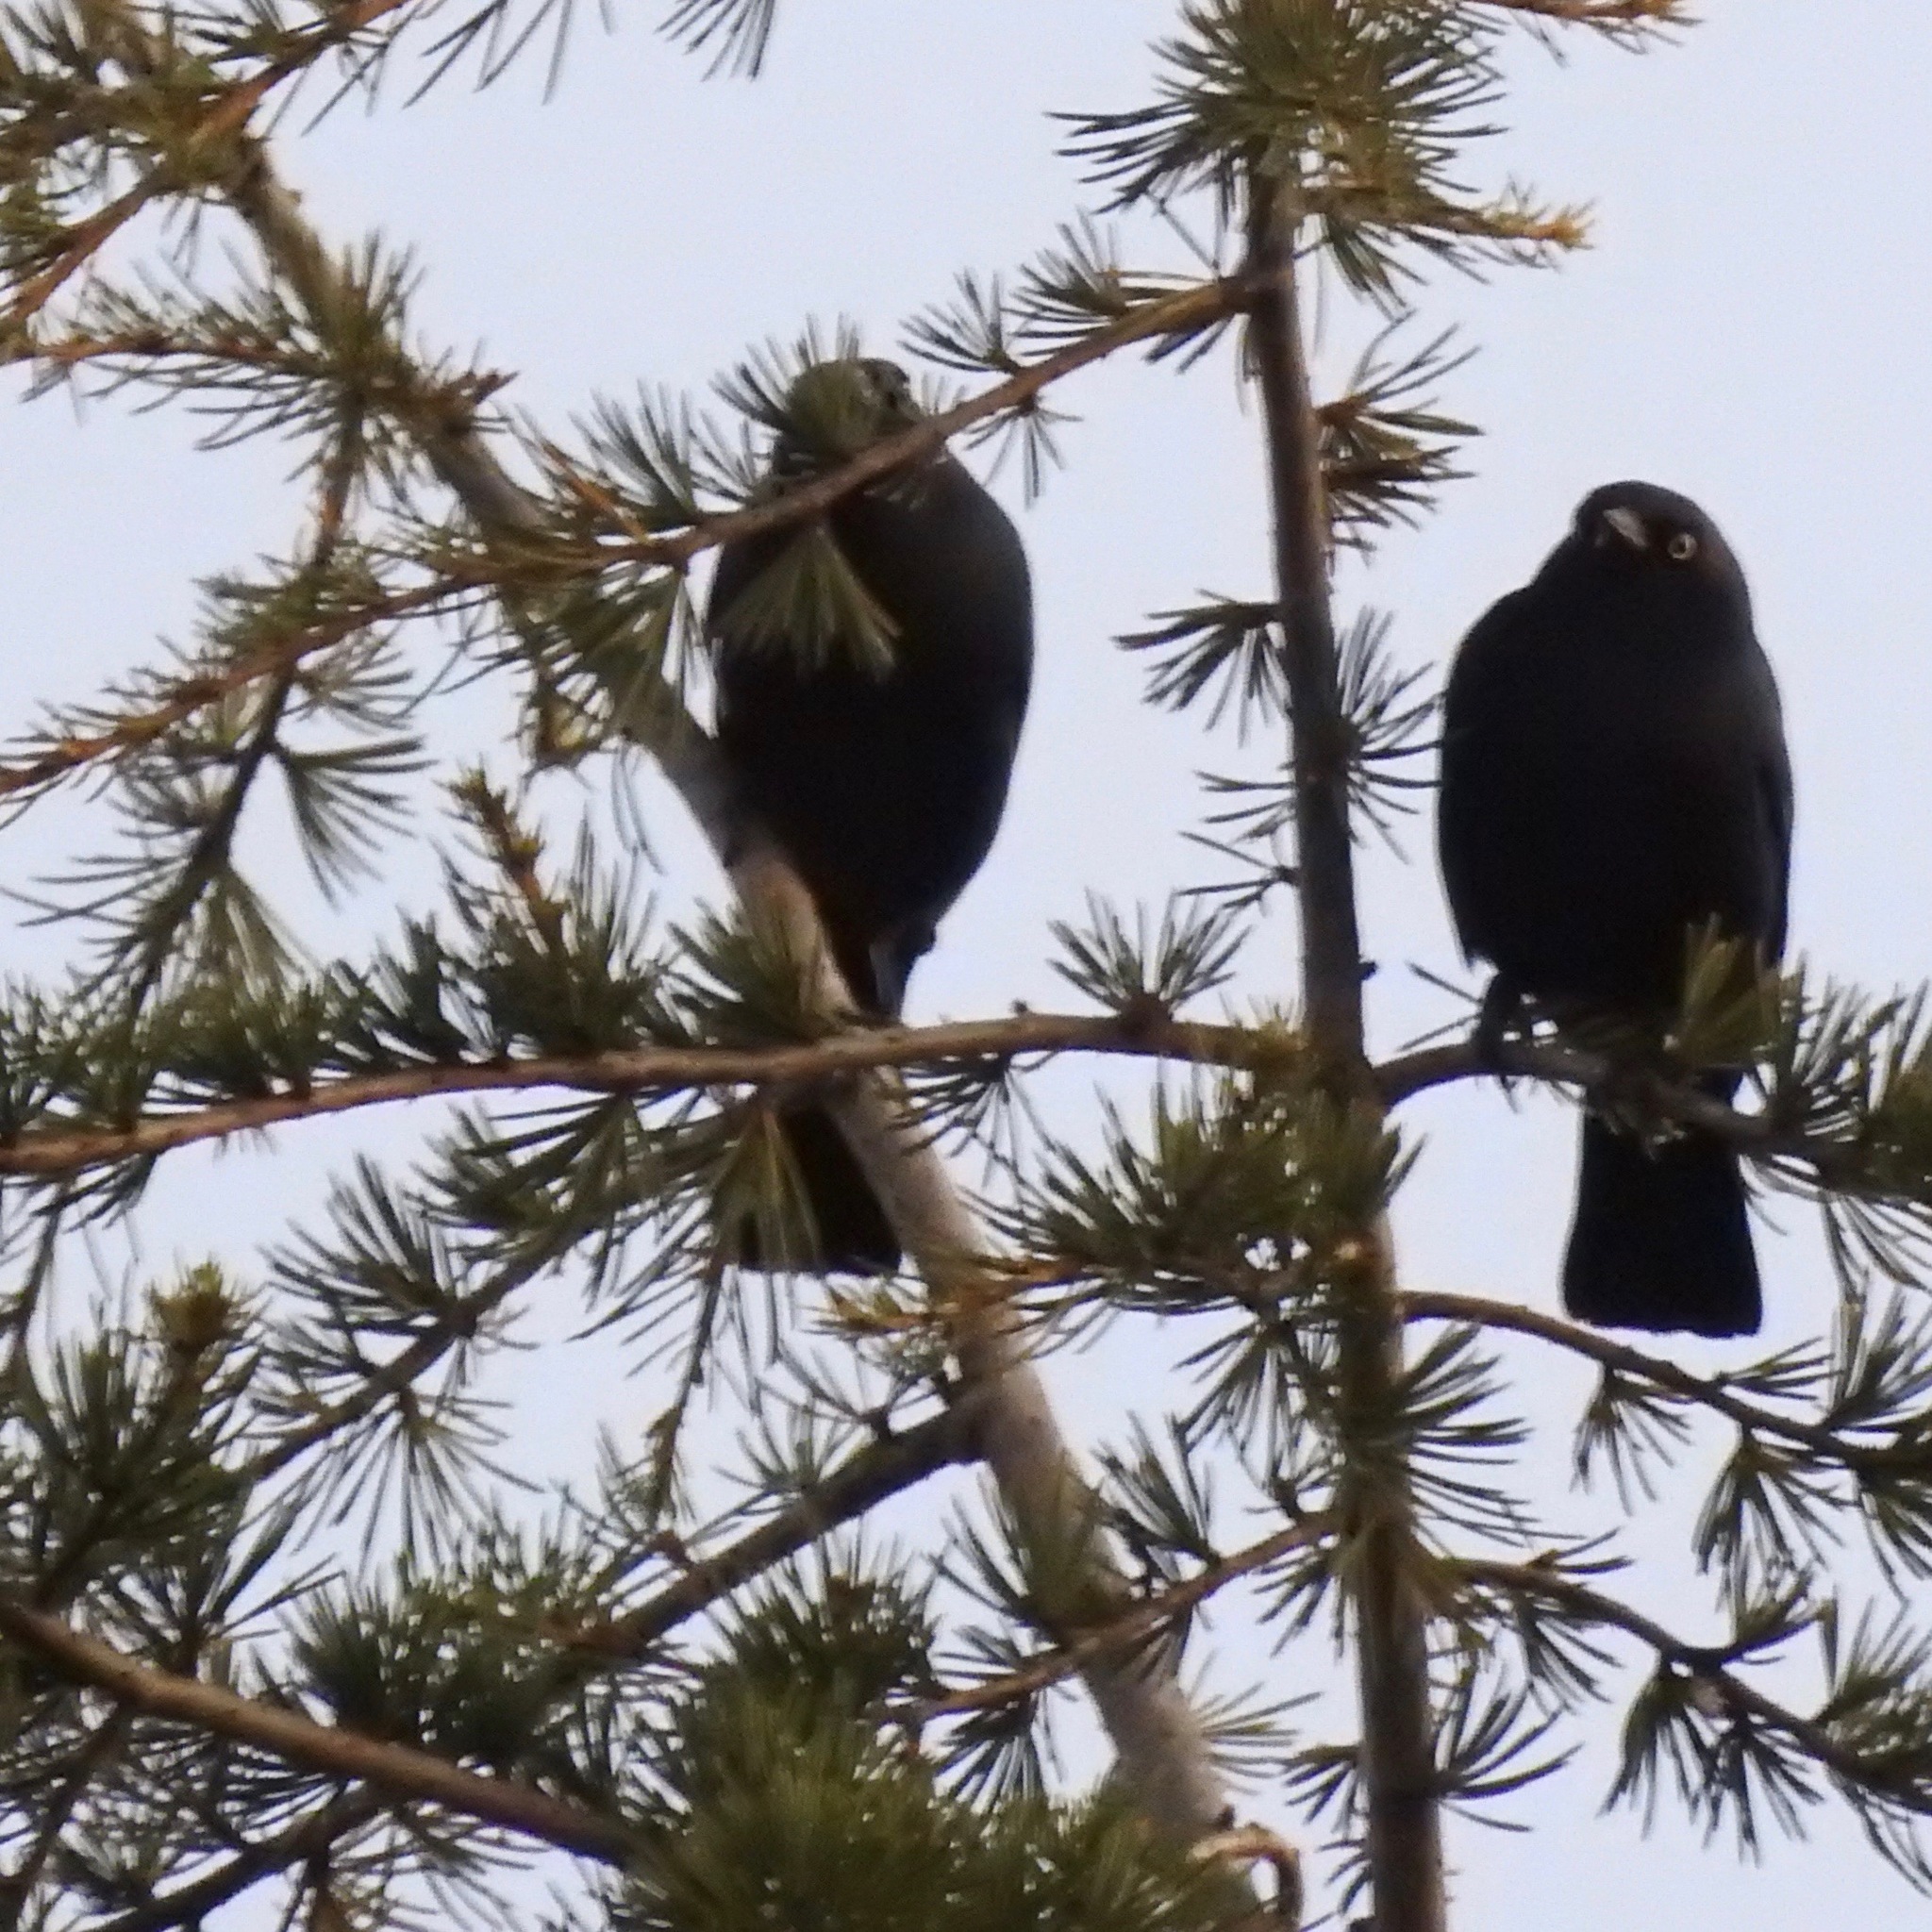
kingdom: Animalia
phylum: Chordata
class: Aves
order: Passeriformes
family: Icteridae
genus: Euphagus
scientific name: Euphagus cyanocephalus
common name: Brewer's blackbird
